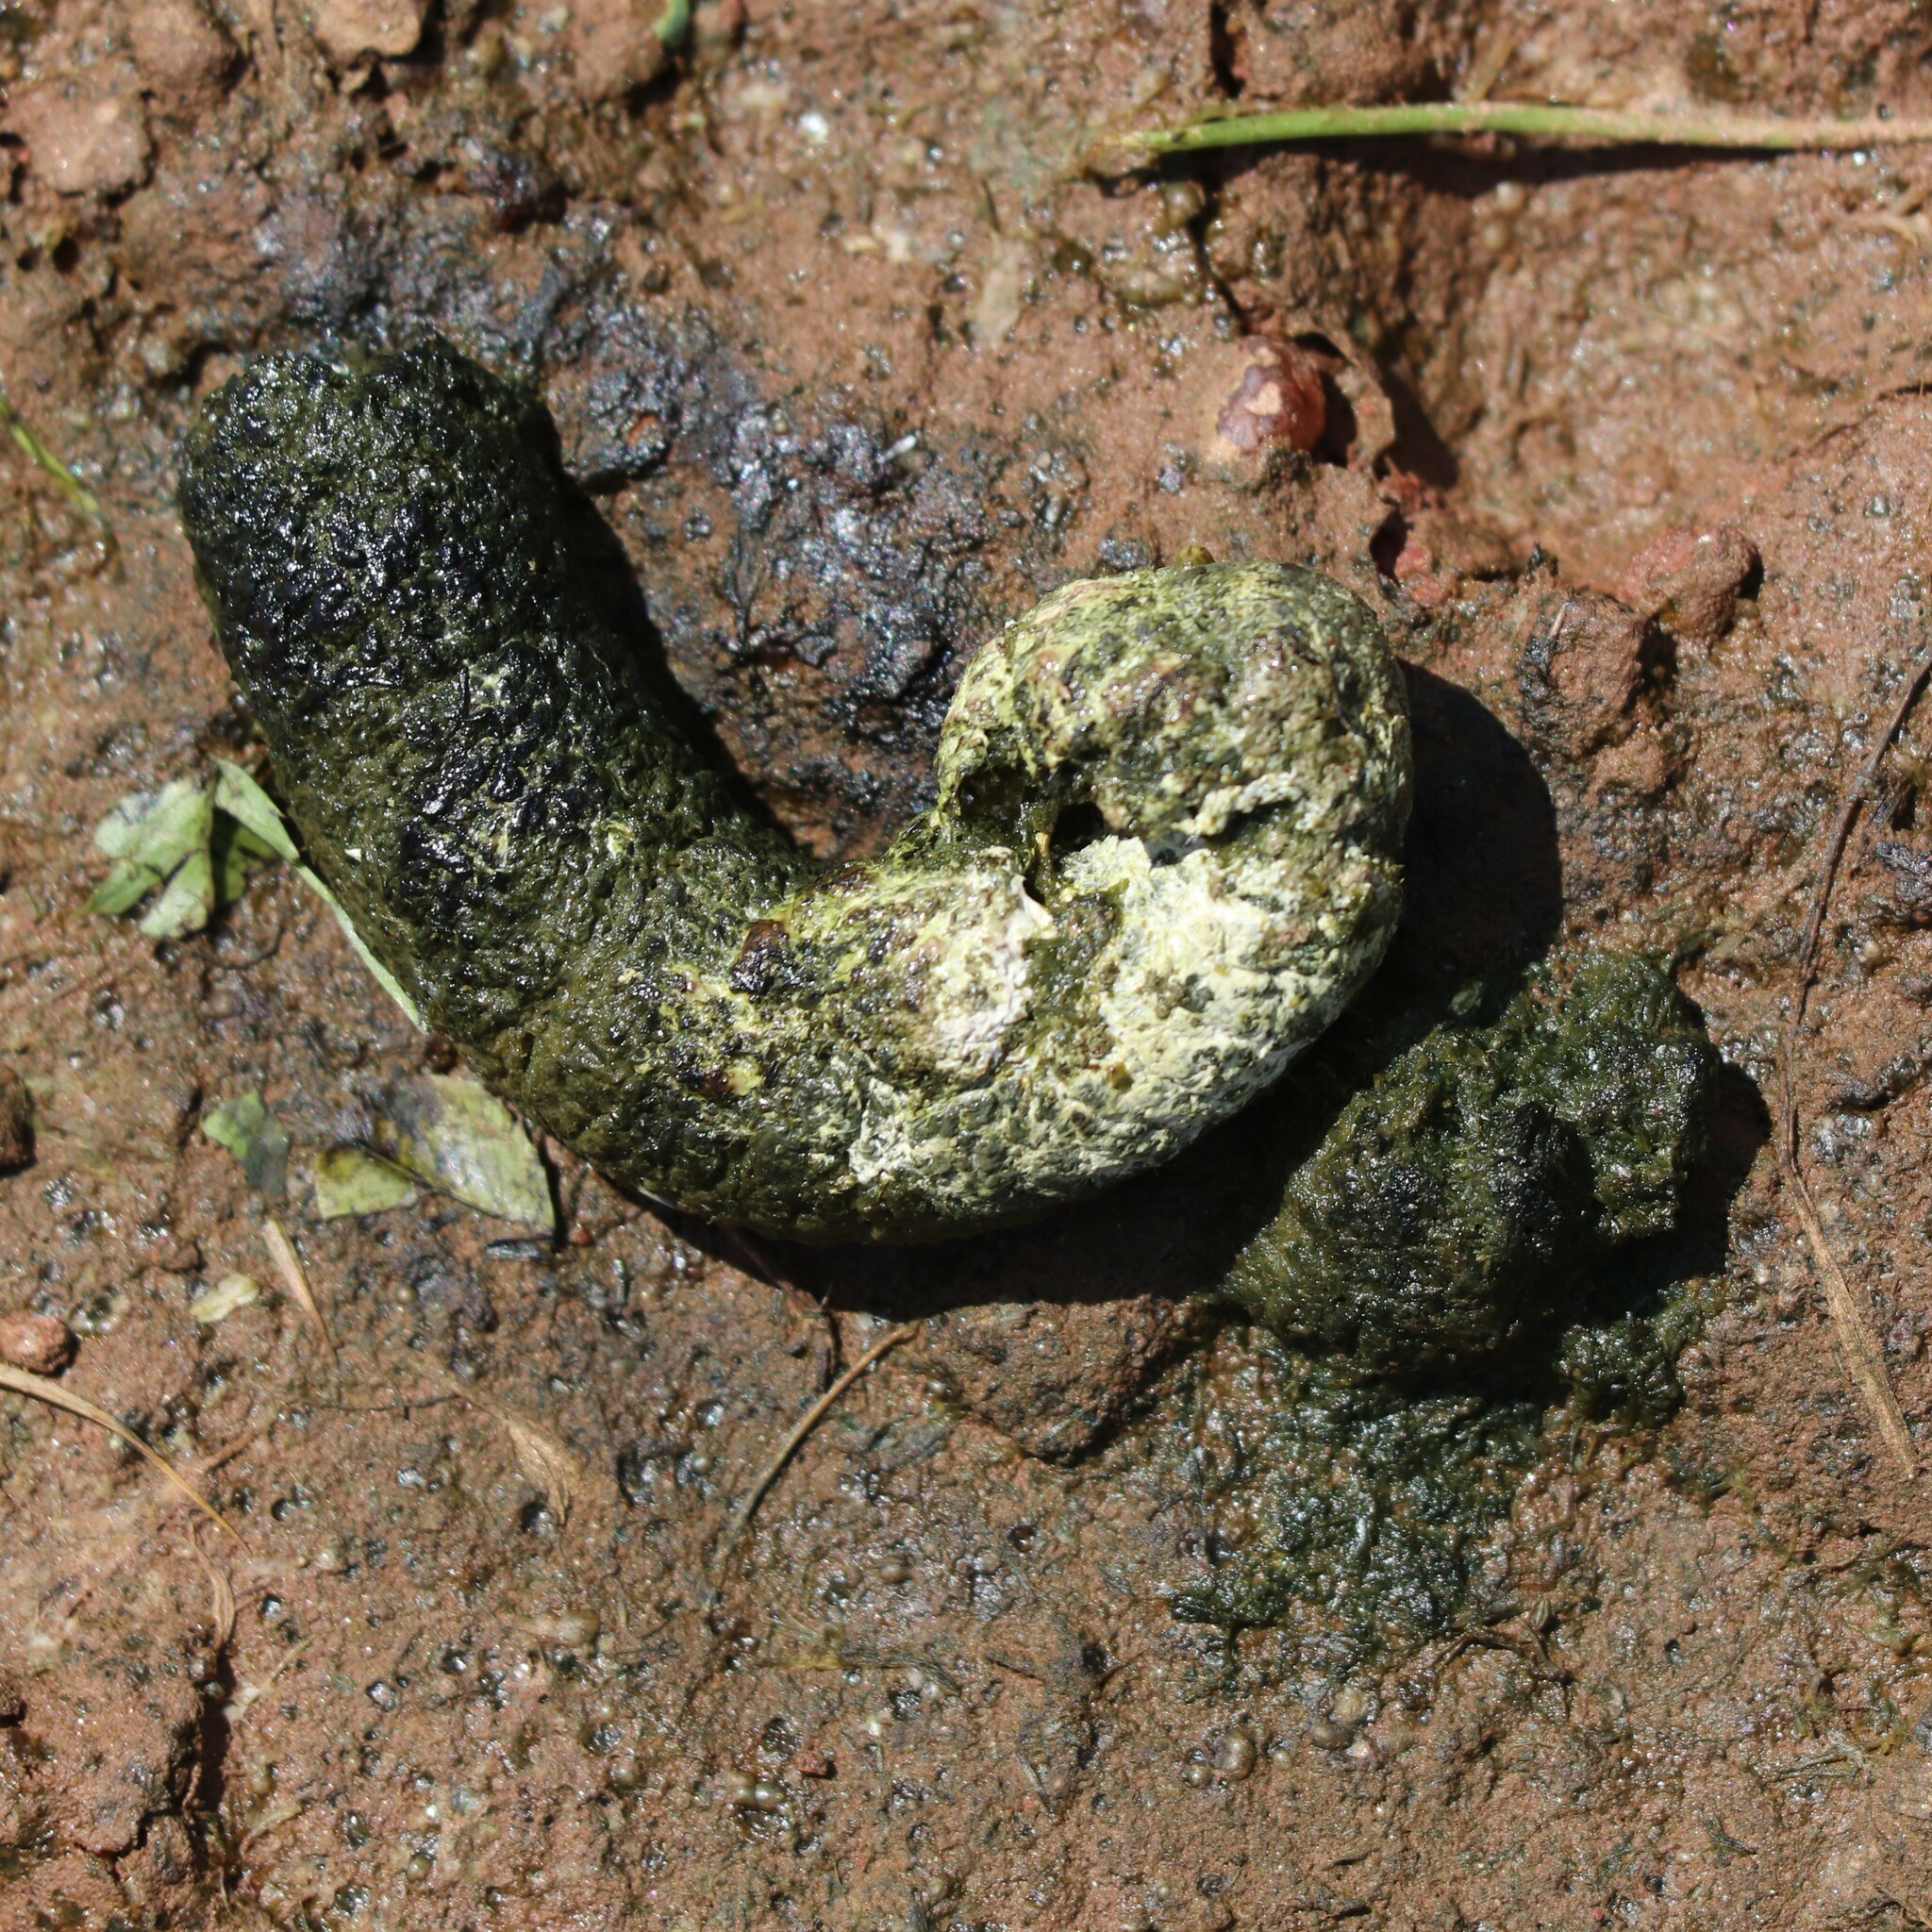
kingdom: Animalia
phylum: Chordata
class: Aves
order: Anseriformes
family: Anatidae
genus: Branta
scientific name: Branta canadensis
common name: Canada goose
